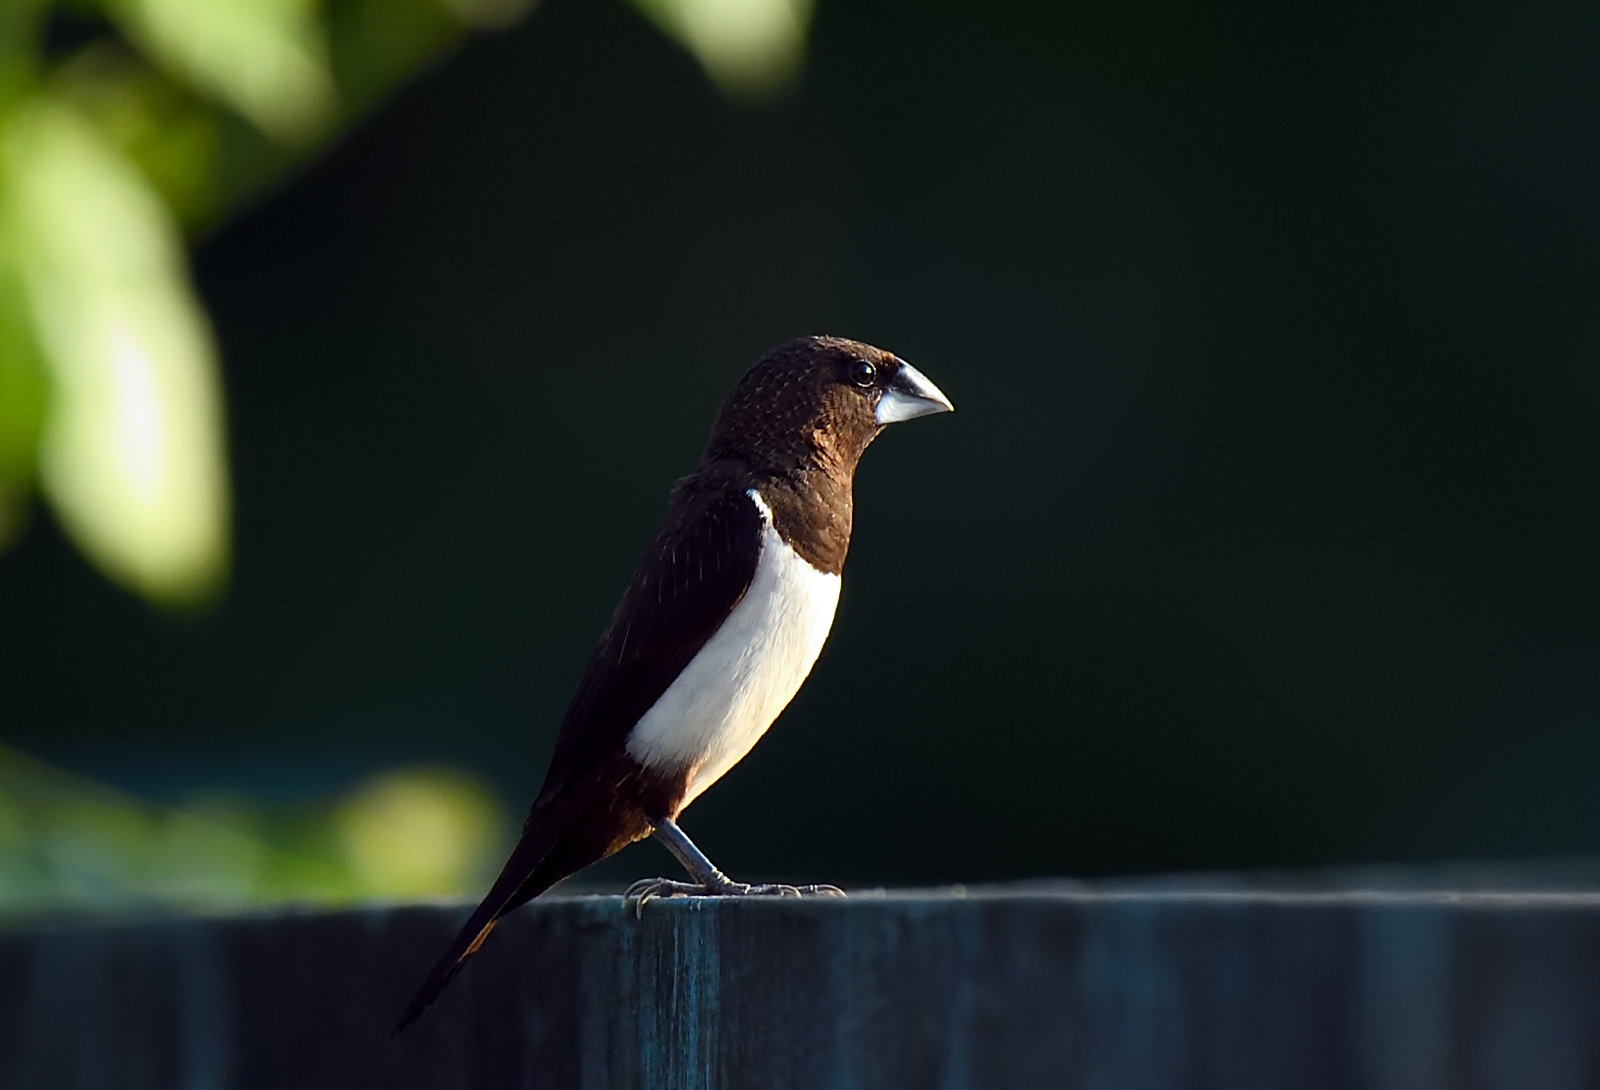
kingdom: Animalia
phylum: Chordata
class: Aves
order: Passeriformes
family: Estrildidae
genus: Lonchura
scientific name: Lonchura striata
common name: White-rumped munia
